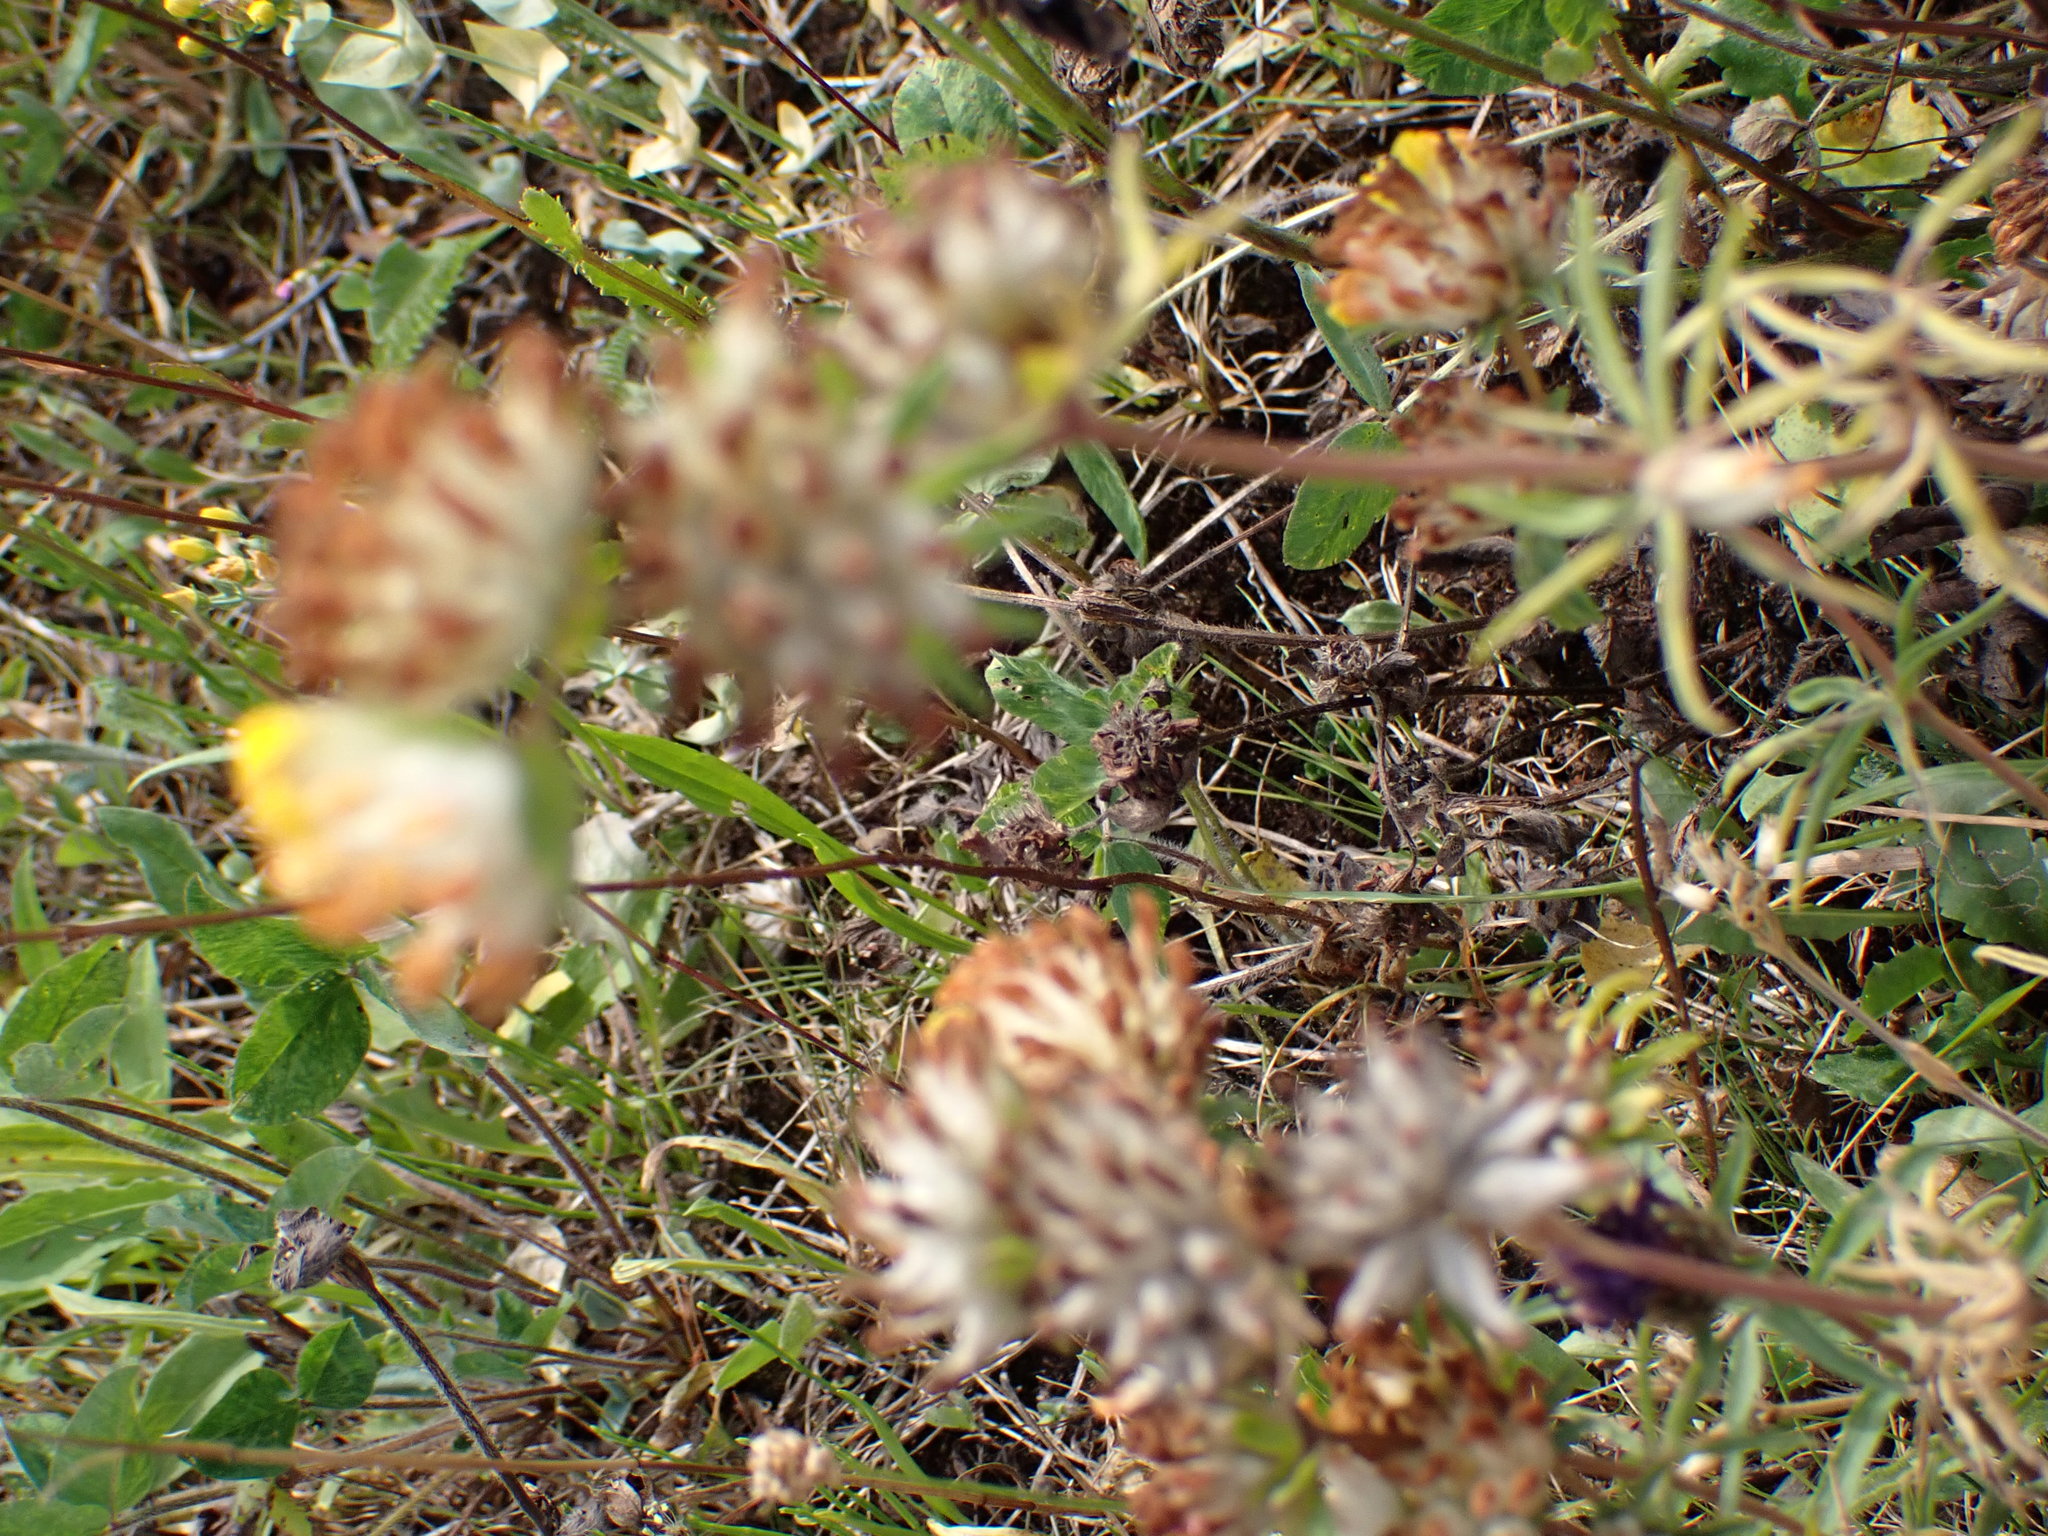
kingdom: Plantae
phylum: Tracheophyta
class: Magnoliopsida
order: Fabales
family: Fabaceae
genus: Anthyllis
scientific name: Anthyllis vulneraria
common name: Kidney vetch
